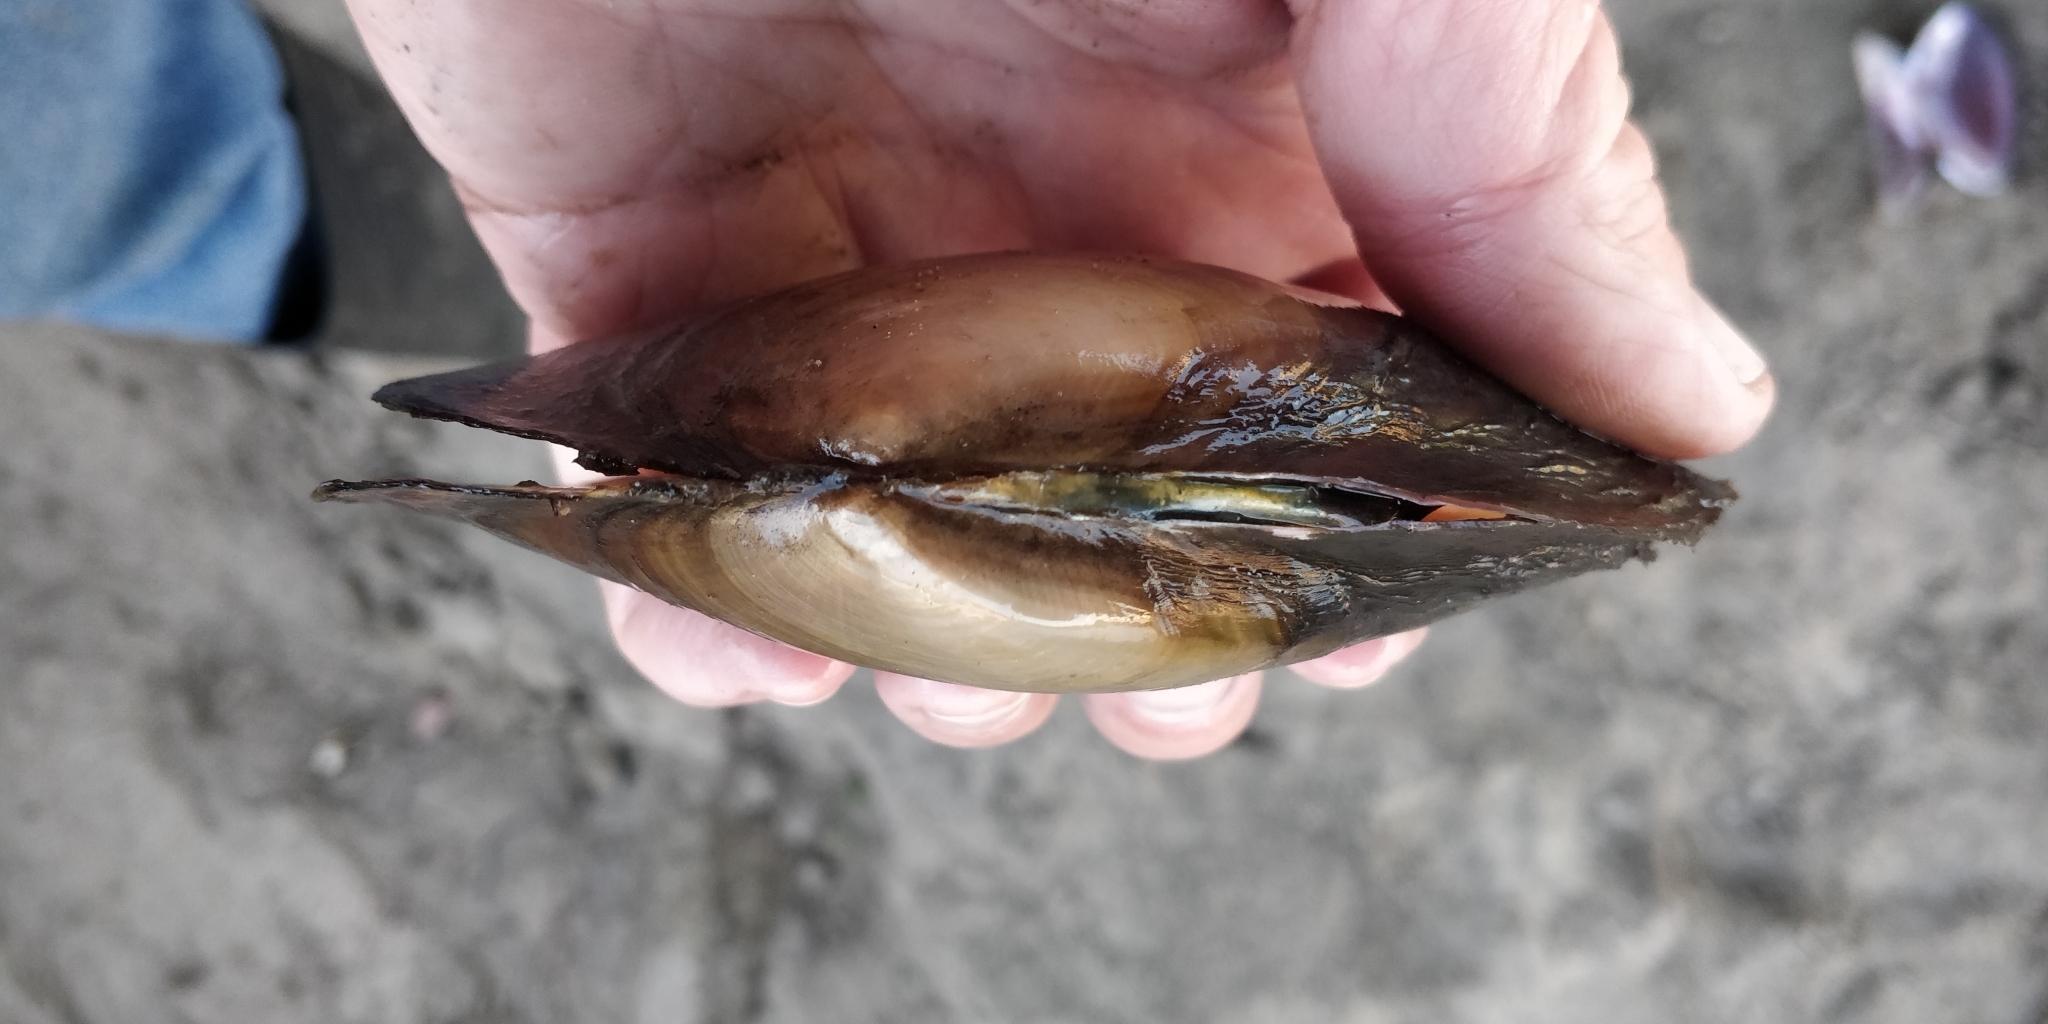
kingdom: Animalia
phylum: Mollusca
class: Bivalvia
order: Unionida
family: Unionidae
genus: Potamilus
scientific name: Potamilus ohiensis
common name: Pink papershell
